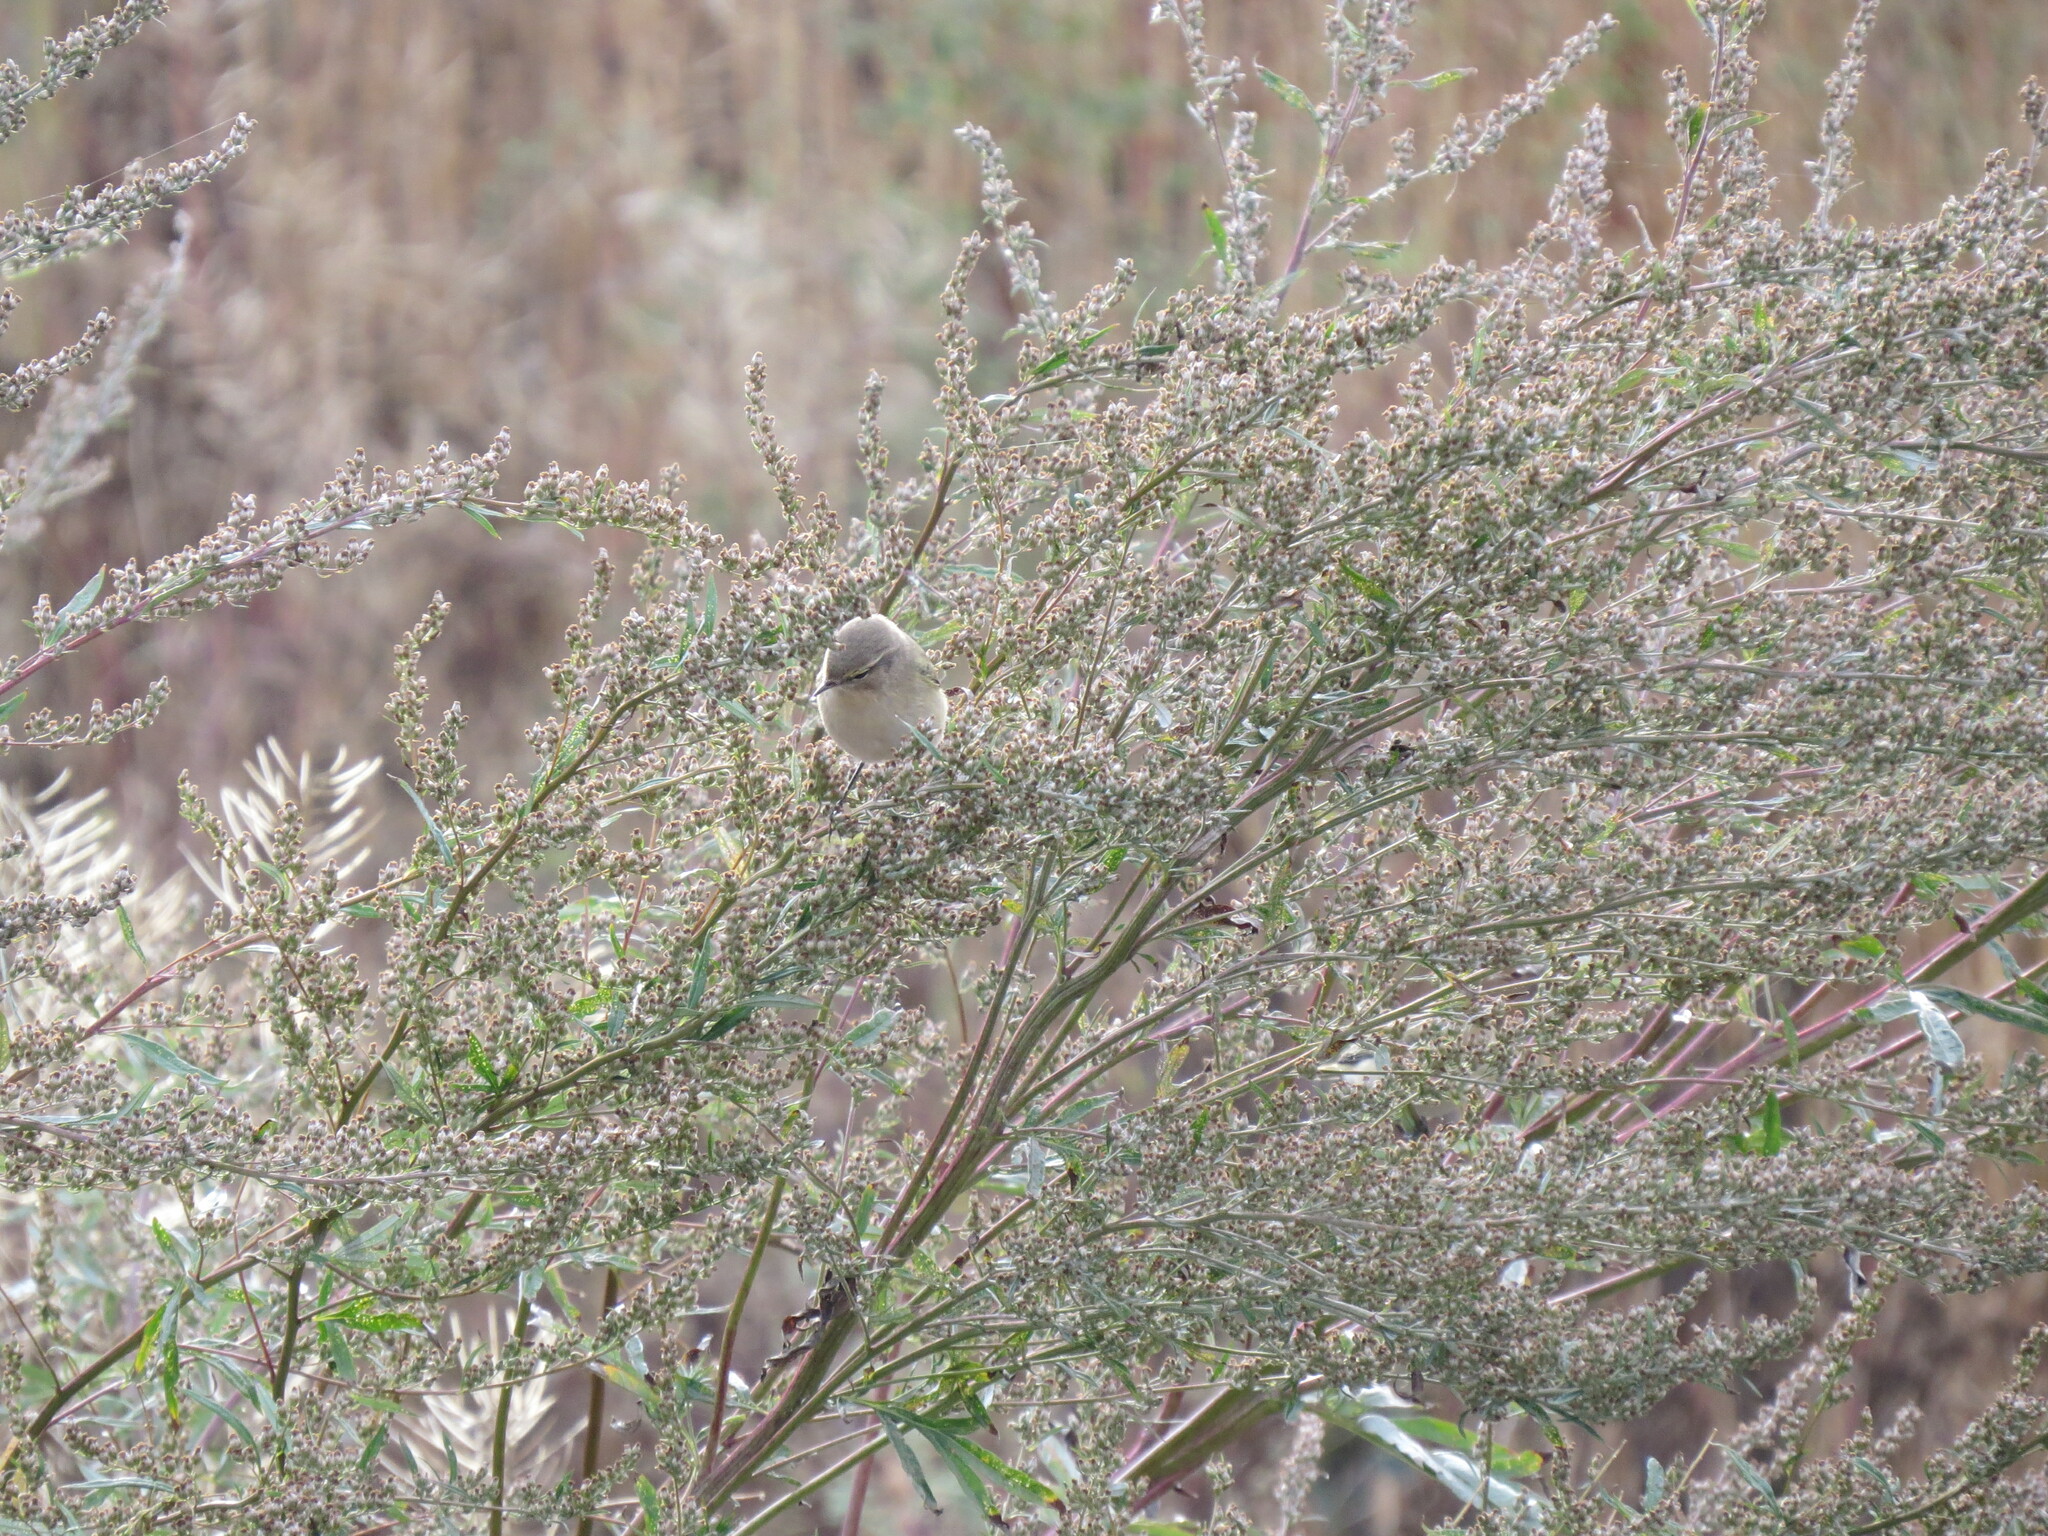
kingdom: Animalia
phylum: Chordata
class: Aves
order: Passeriformes
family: Phylloscopidae
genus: Phylloscopus
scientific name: Phylloscopus collybita
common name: Common chiffchaff
